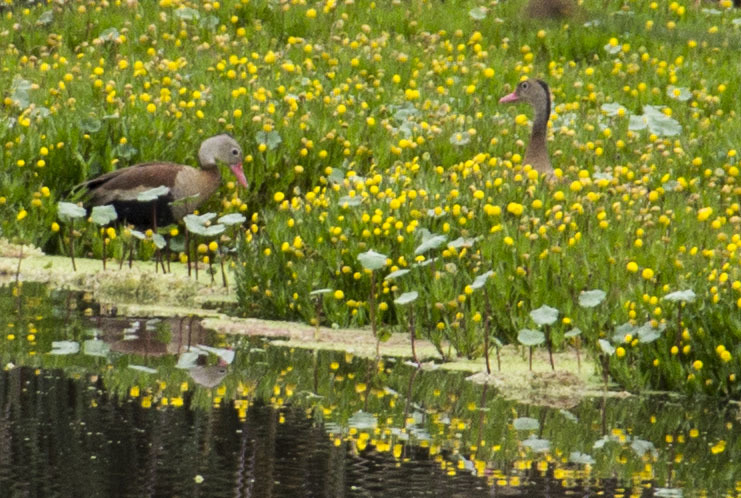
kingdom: Animalia
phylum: Chordata
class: Aves
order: Anseriformes
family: Anatidae
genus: Dendrocygna
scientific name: Dendrocygna autumnalis
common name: Black-bellied whistling duck
